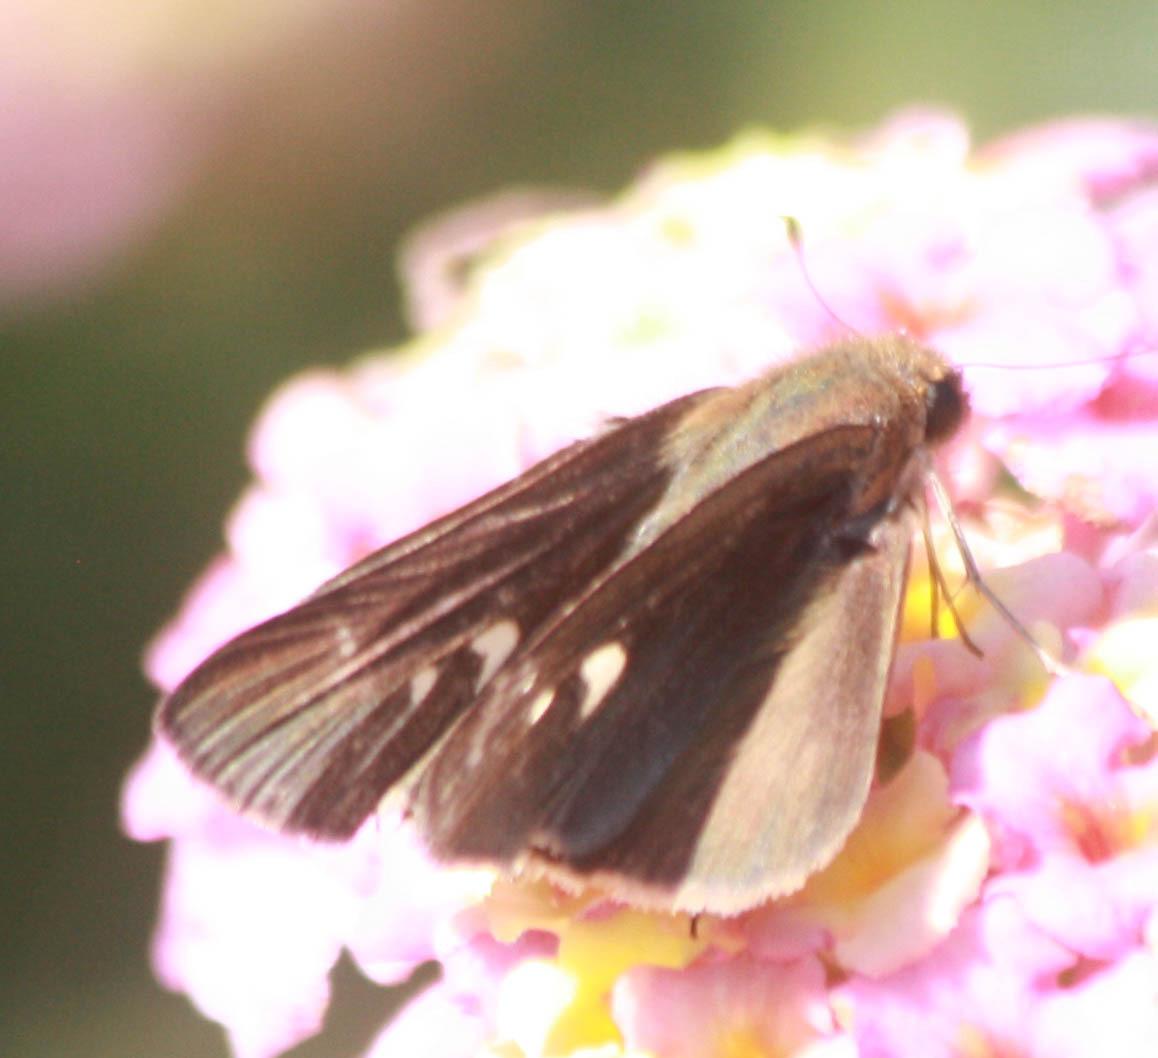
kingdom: Animalia
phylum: Arthropoda
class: Insecta
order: Lepidoptera
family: Hesperiidae
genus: Panoquina
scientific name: Panoquina ocola
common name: Ocola skipper
